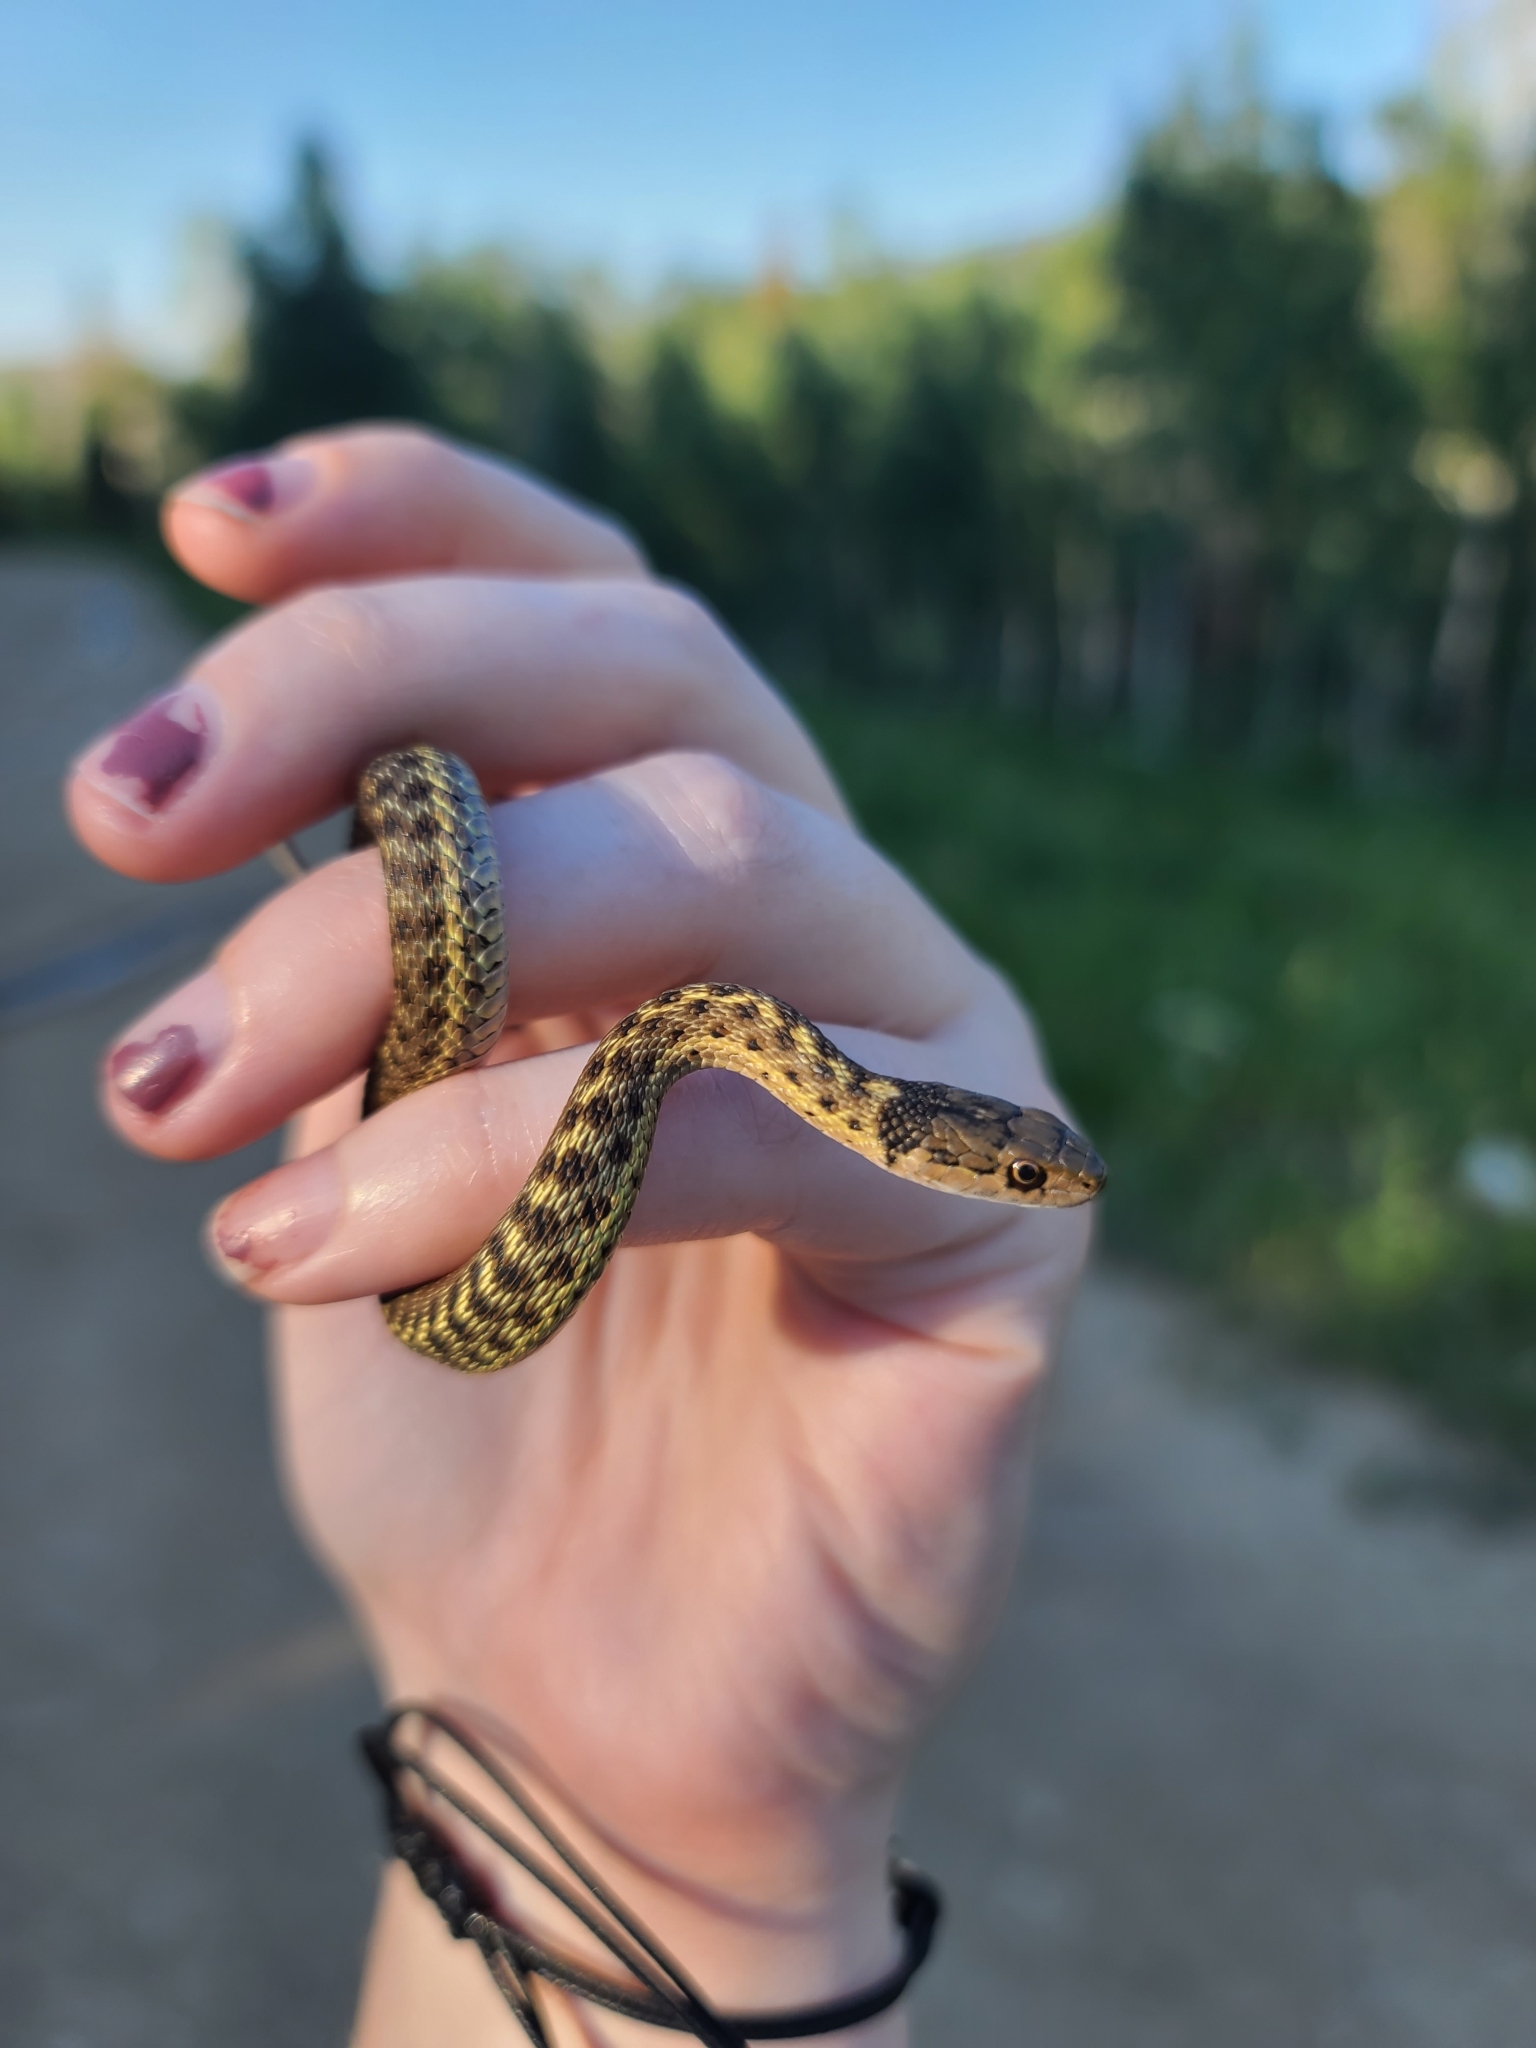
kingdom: Animalia
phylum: Chordata
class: Squamata
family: Colubridae
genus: Thamnophis
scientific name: Thamnophis elegans
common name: Western terrestrial garter snake
